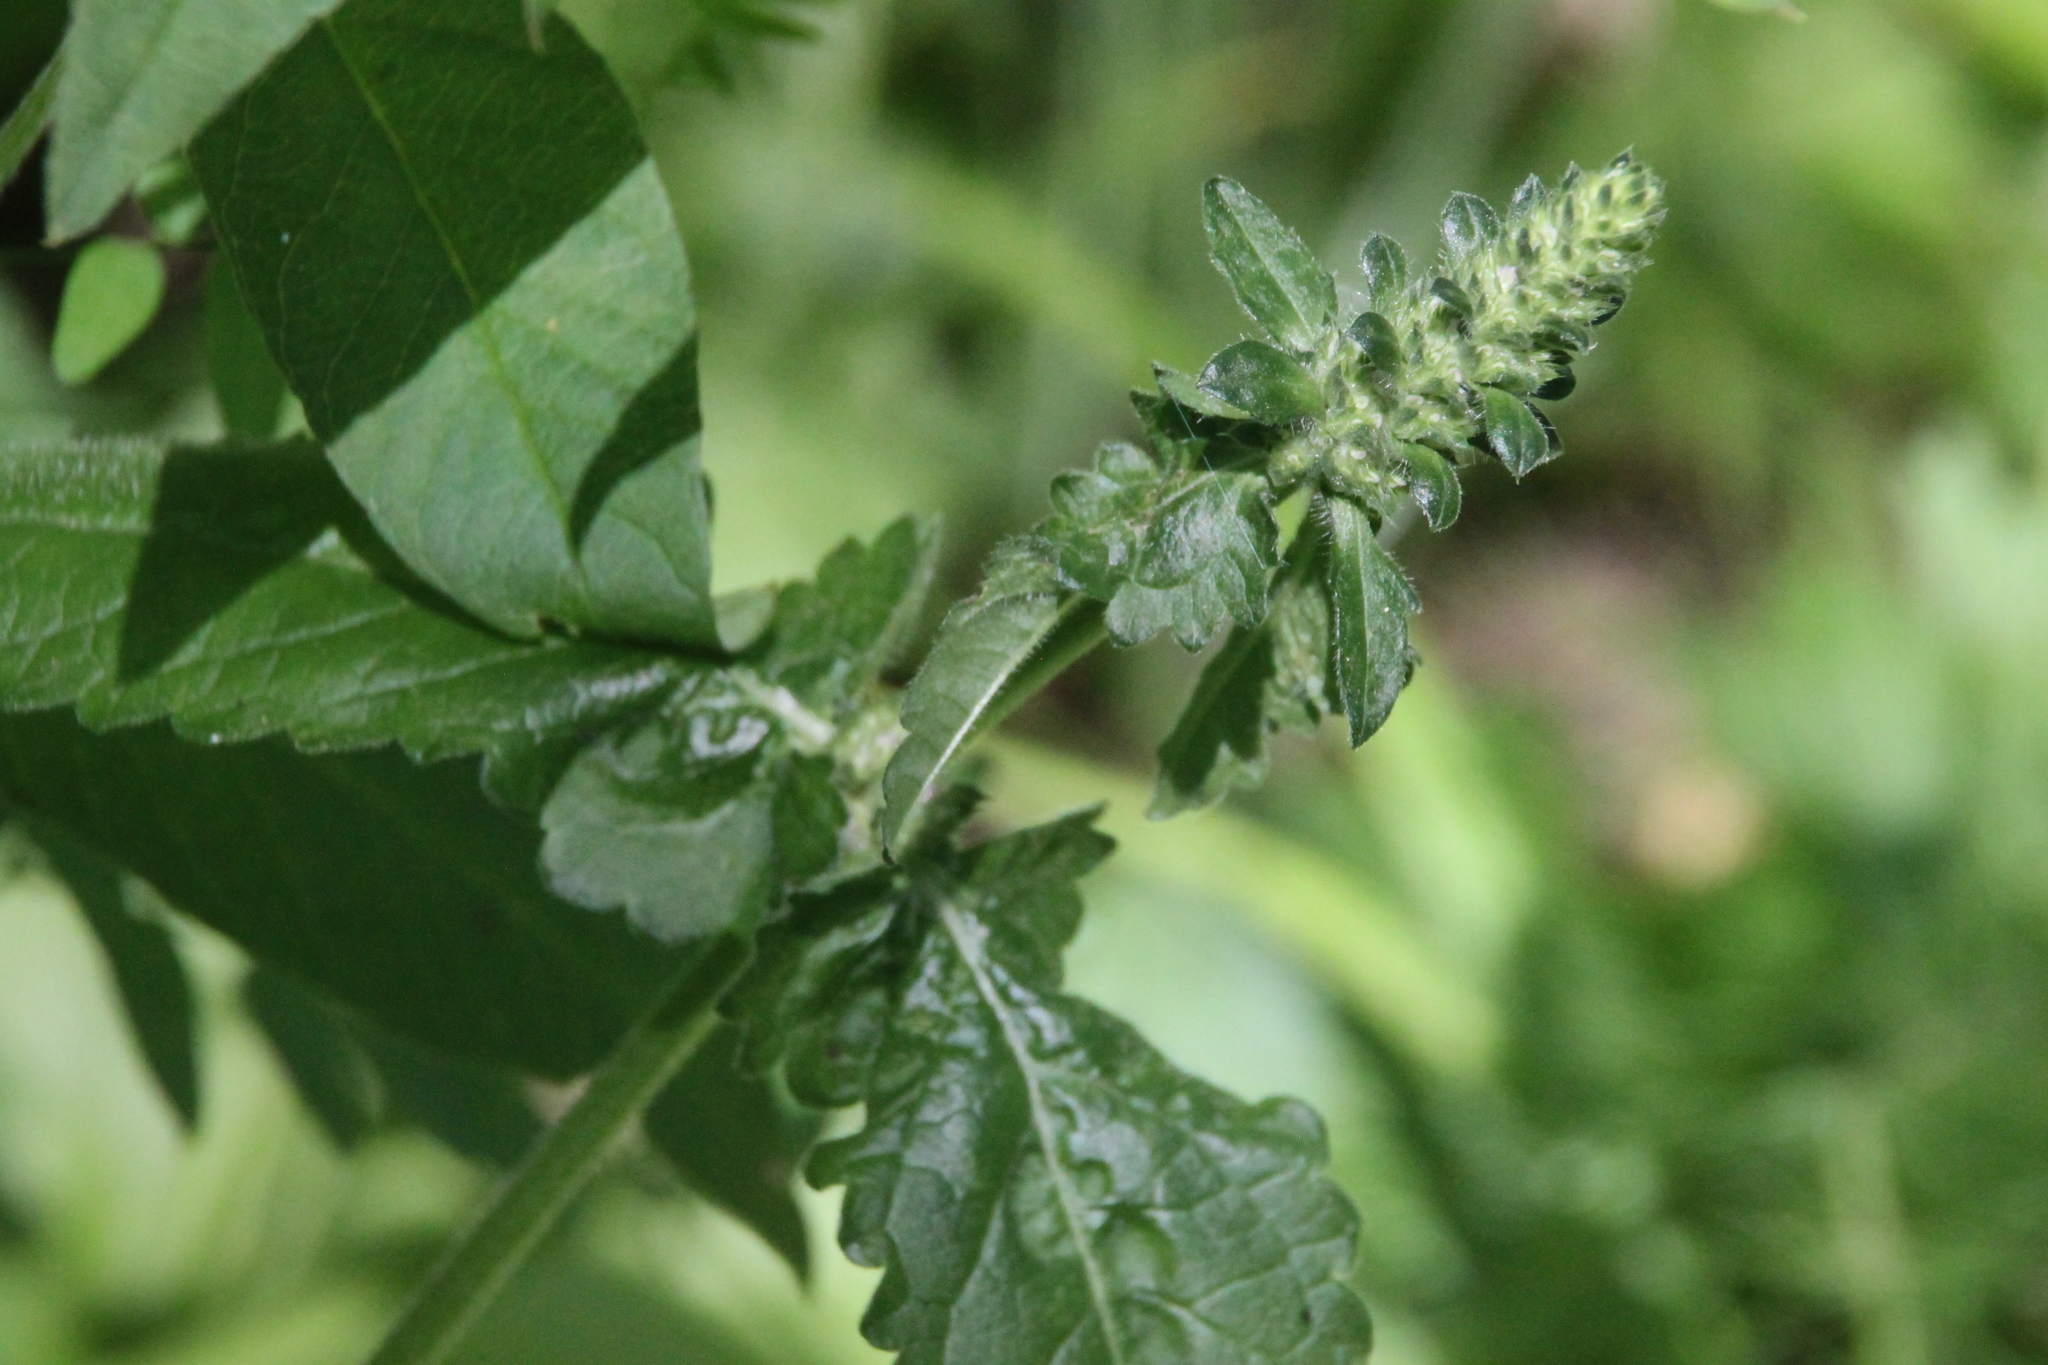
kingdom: Plantae
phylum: Tracheophyta
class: Magnoliopsida
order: Lamiales
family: Lamiaceae
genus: Betonica
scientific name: Betonica officinalis
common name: Bishop's-wort
